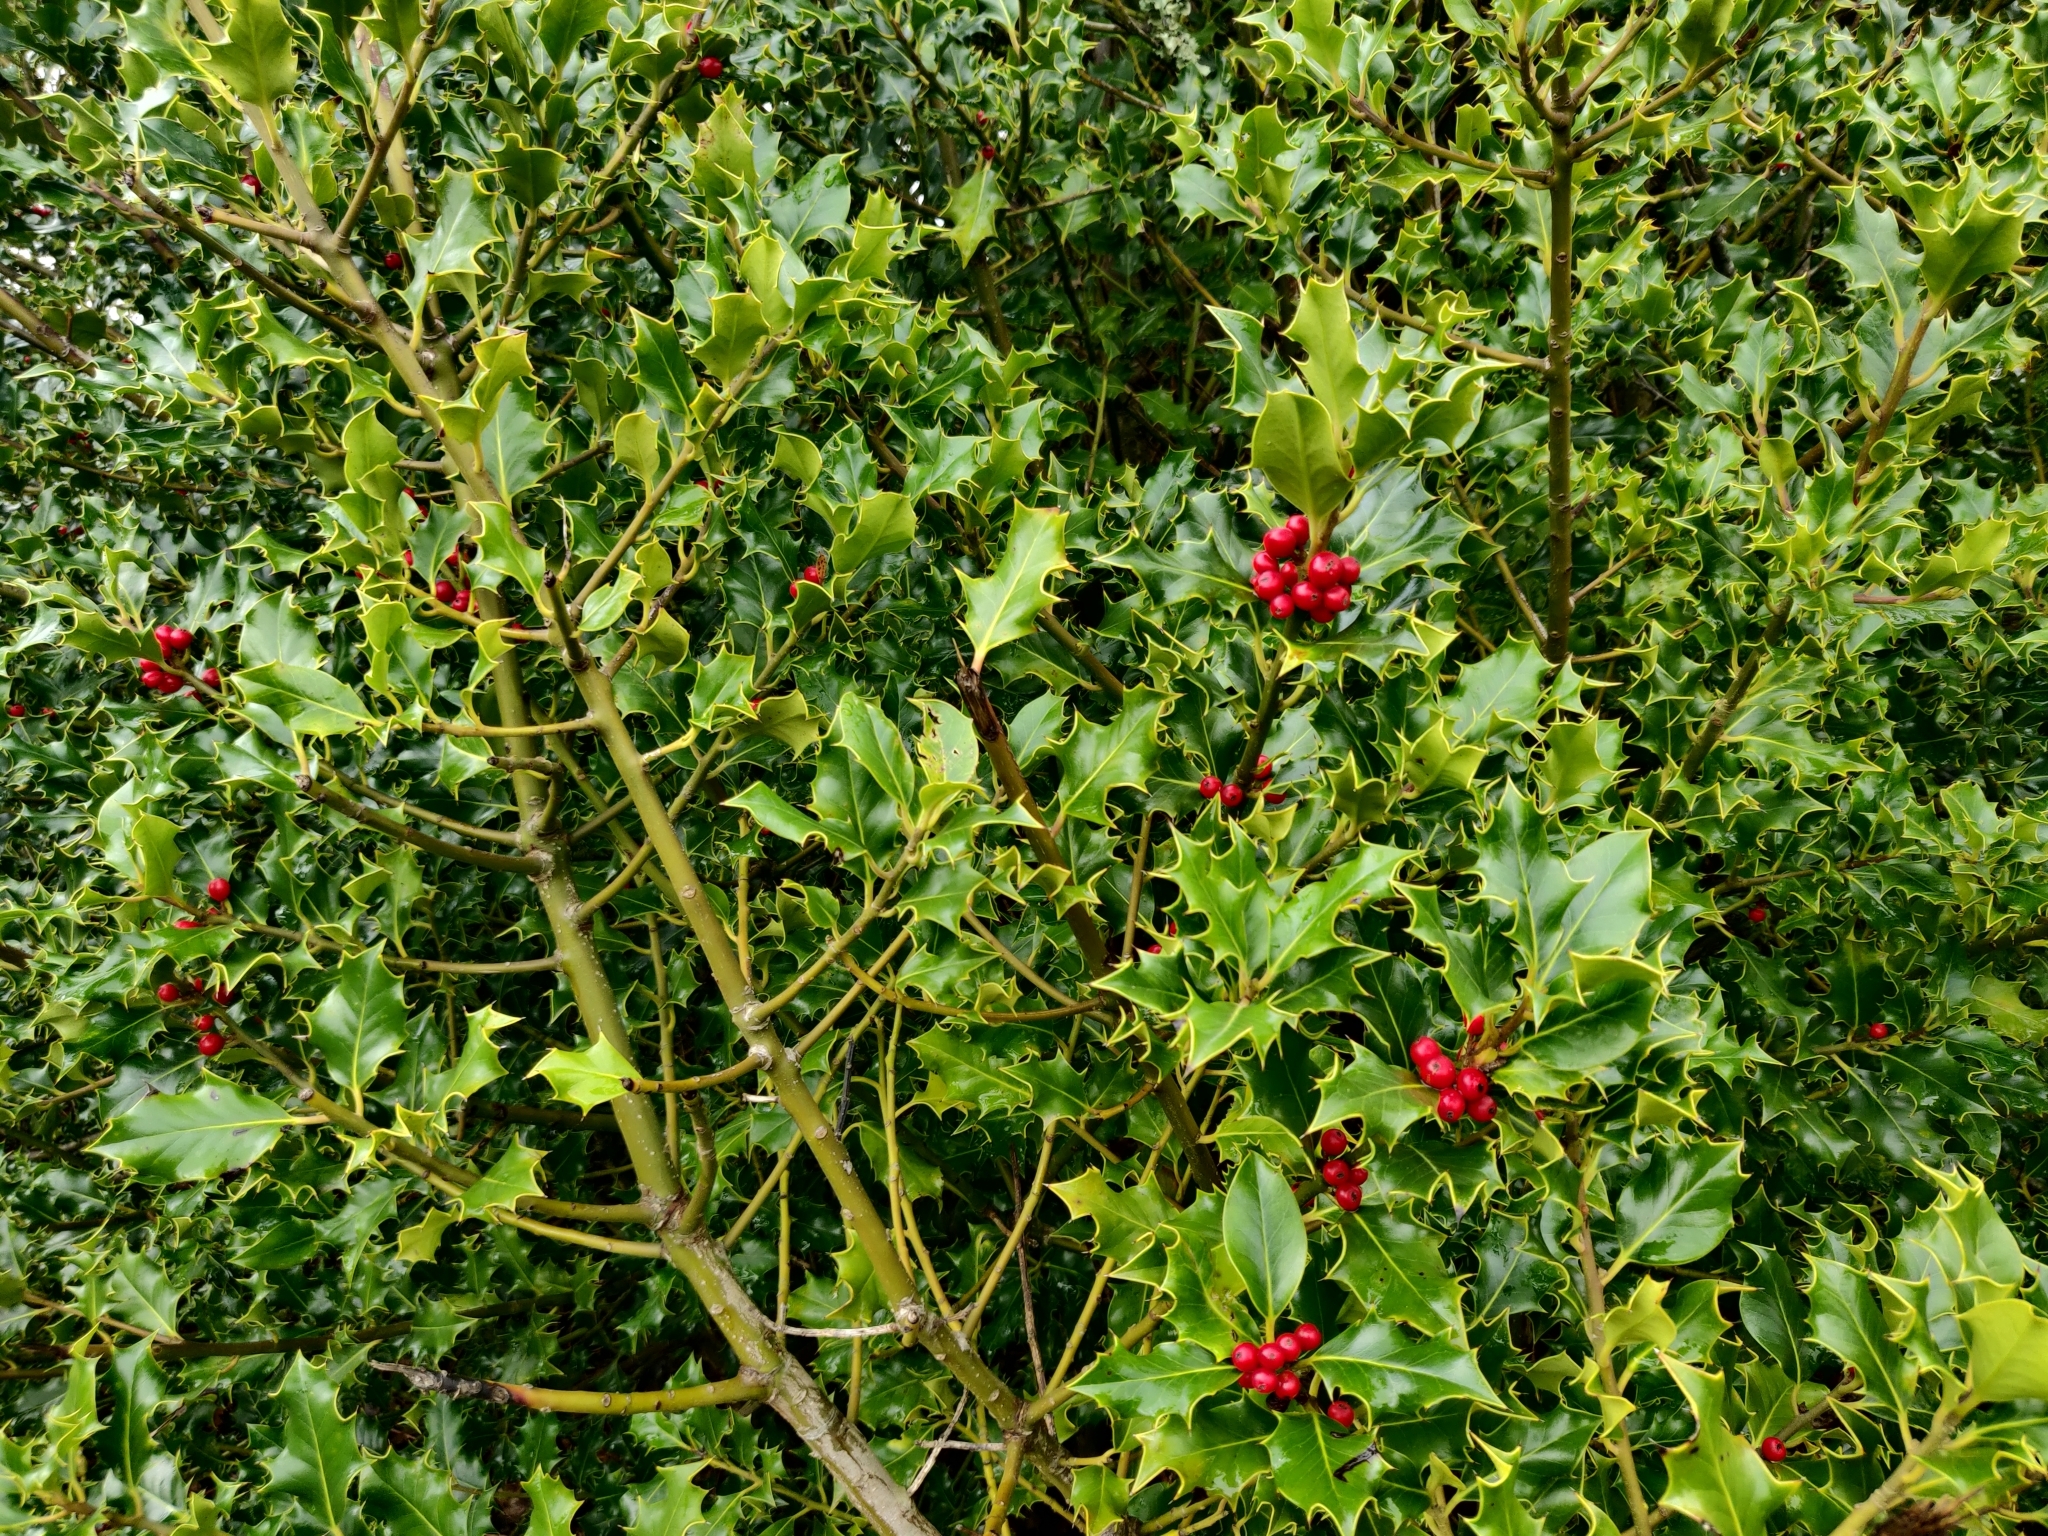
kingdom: Plantae
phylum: Tracheophyta
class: Magnoliopsida
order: Aquifoliales
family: Aquifoliaceae
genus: Ilex
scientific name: Ilex aquifolium
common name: English holly
